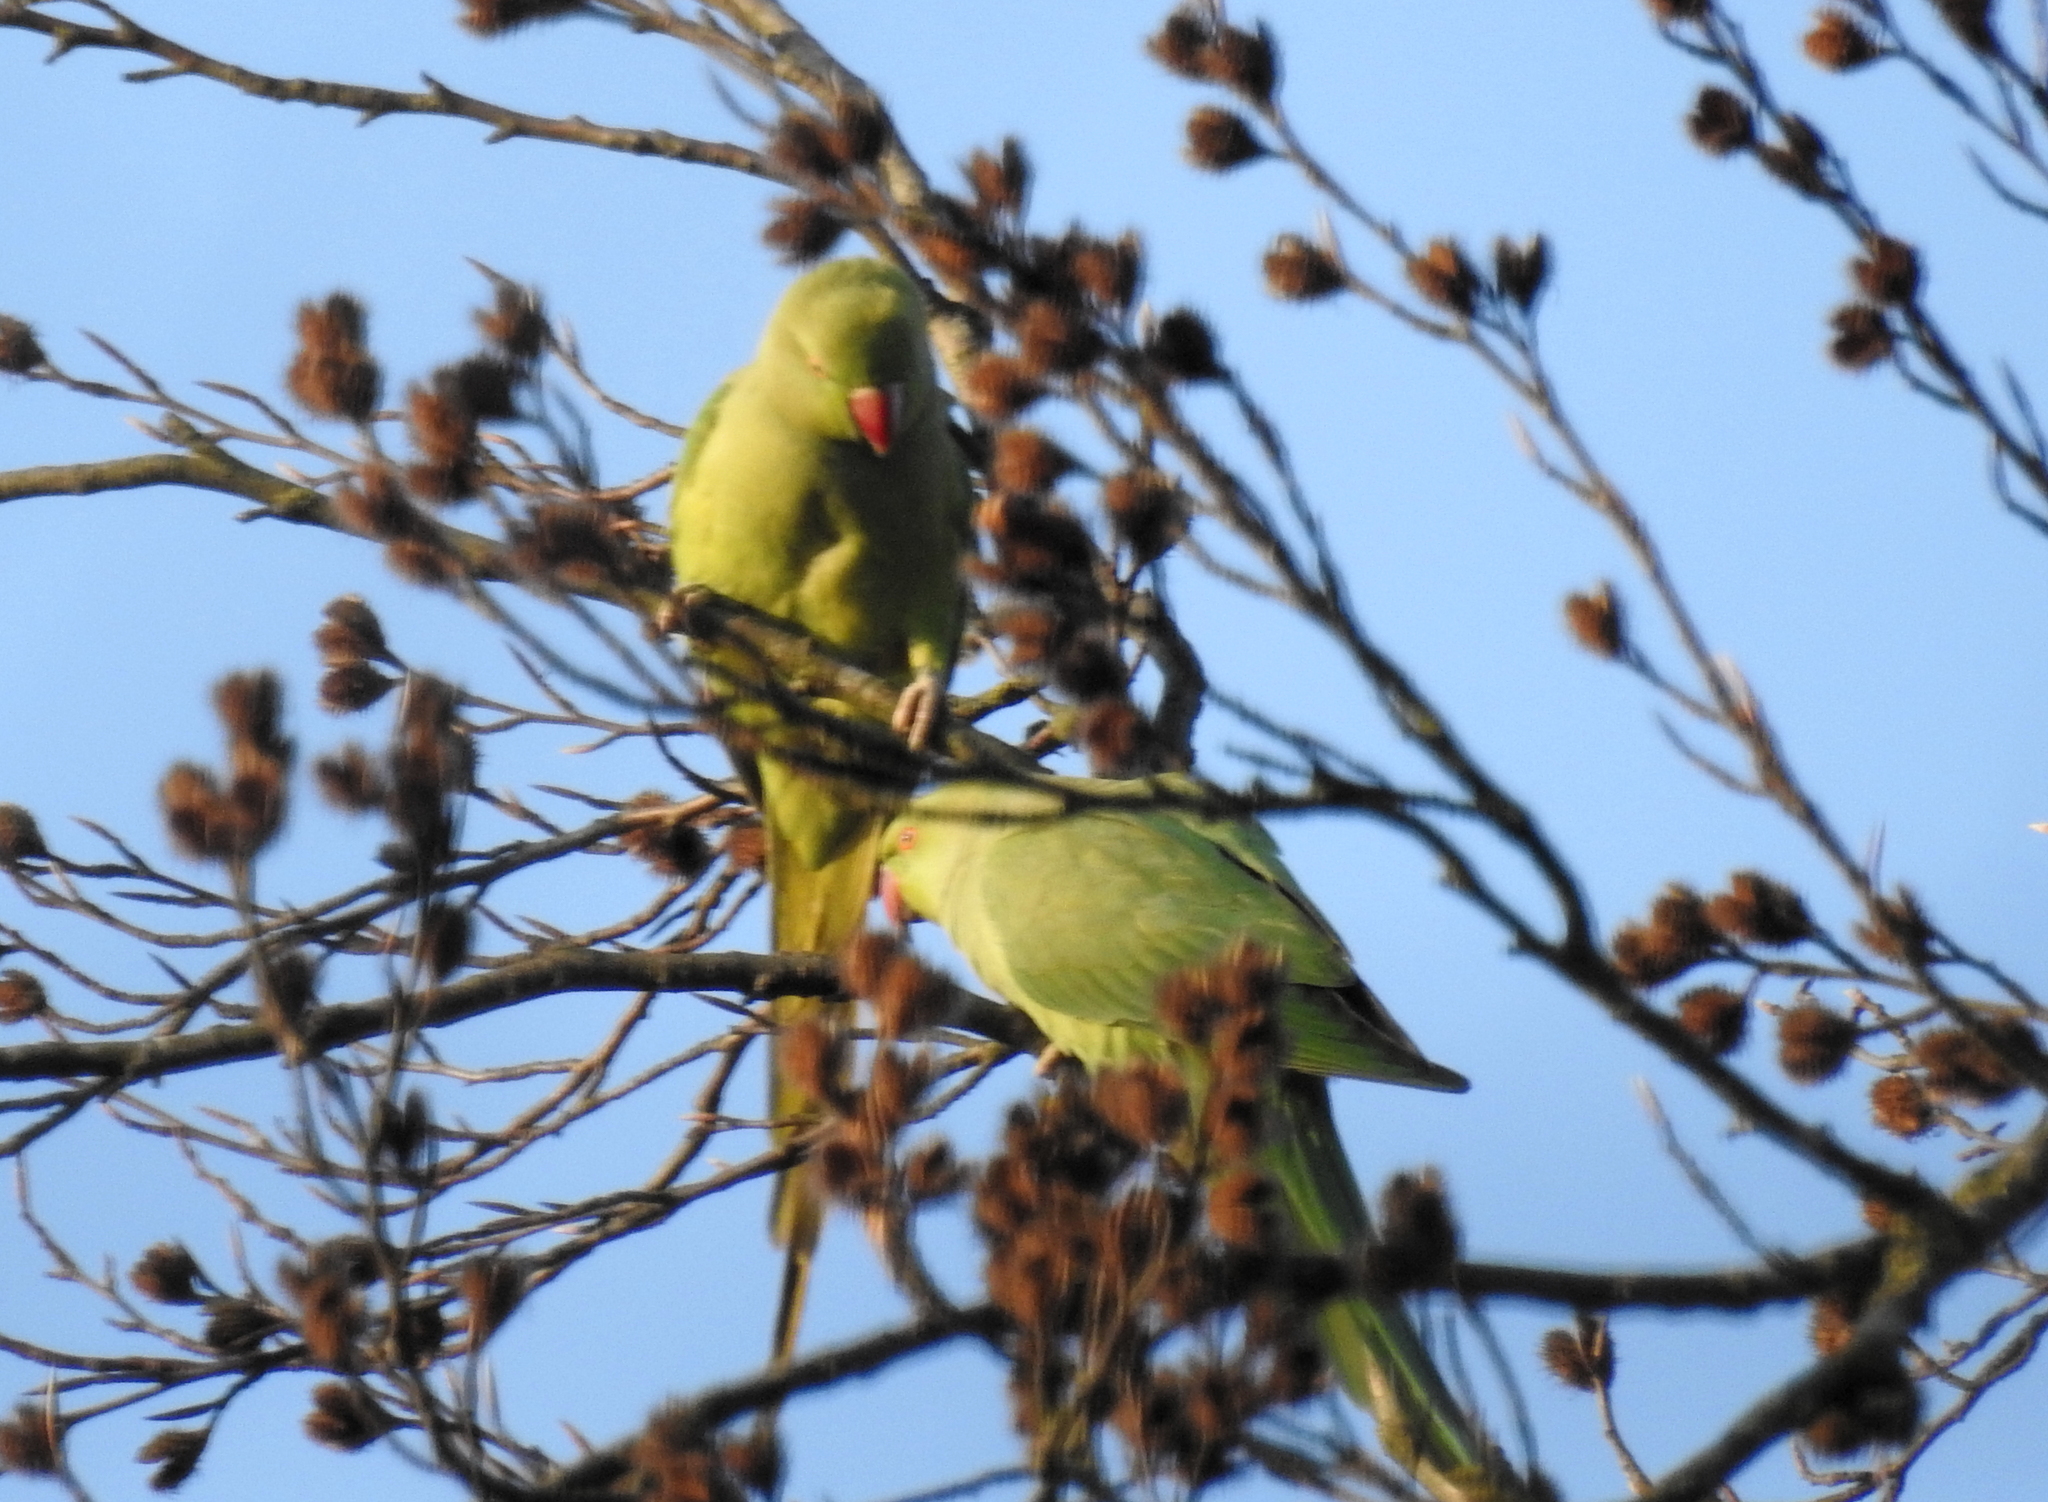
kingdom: Animalia
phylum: Chordata
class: Aves
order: Psittaciformes
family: Psittacidae
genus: Psittacula
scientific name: Psittacula krameri
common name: Rose-ringed parakeet
